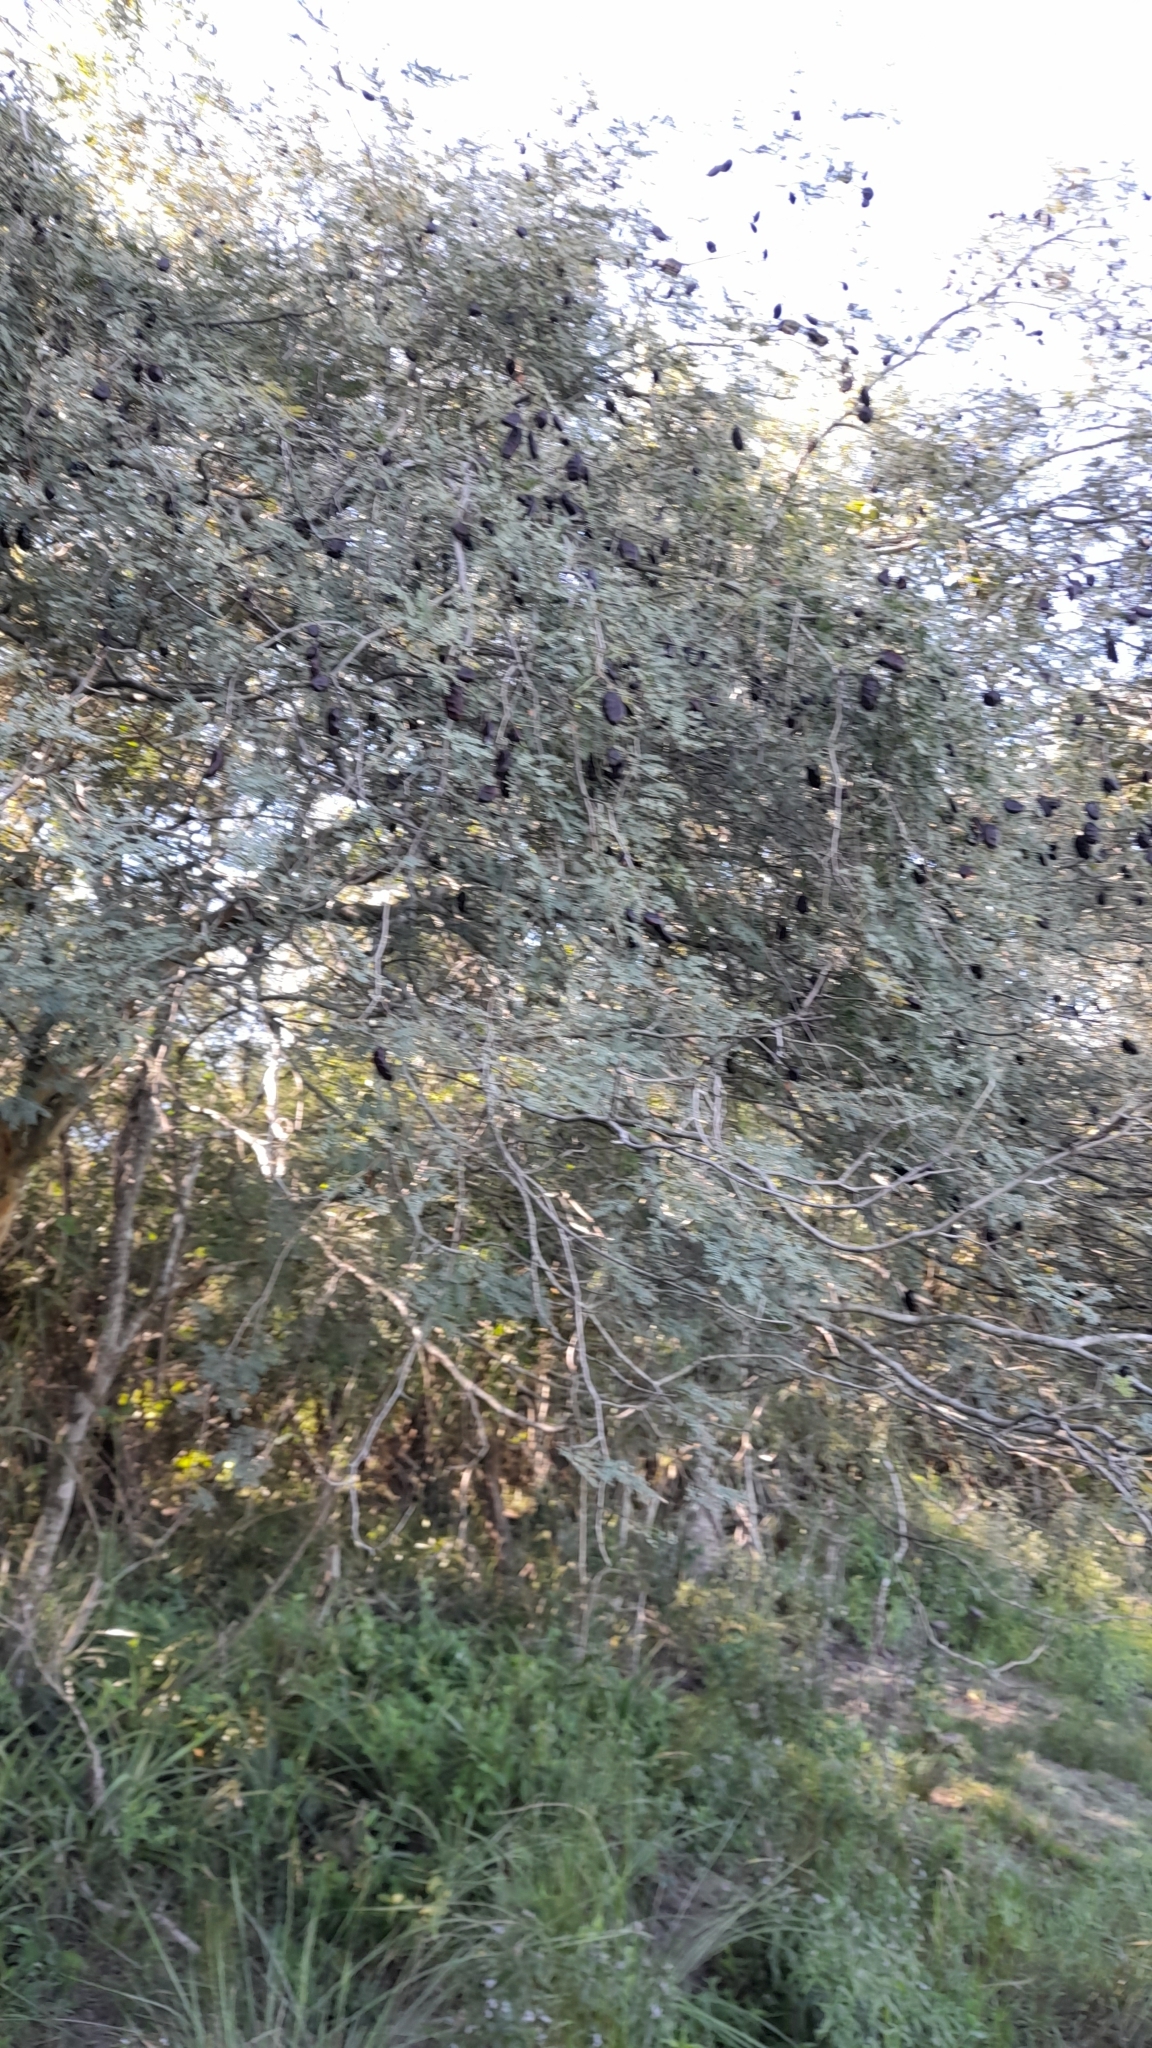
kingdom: Plantae
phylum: Tracheophyta
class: Magnoliopsida
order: Fabales
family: Fabaceae
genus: Libidibia
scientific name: Libidibia paraguariensis
